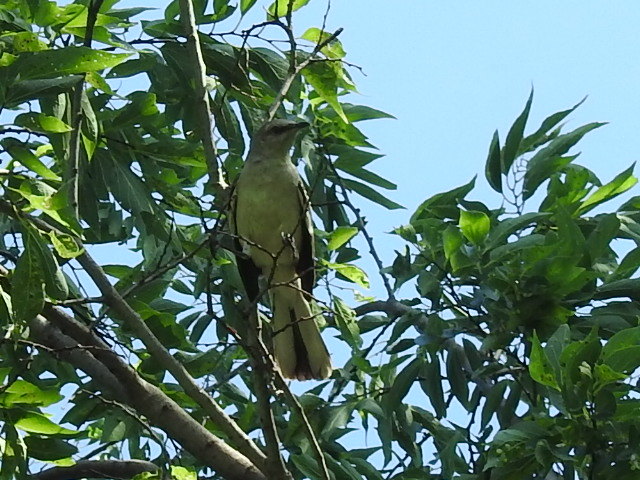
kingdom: Animalia
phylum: Chordata
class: Aves
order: Passeriformes
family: Mimidae
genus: Mimus
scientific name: Mimus polyglottos
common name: Northern mockingbird
